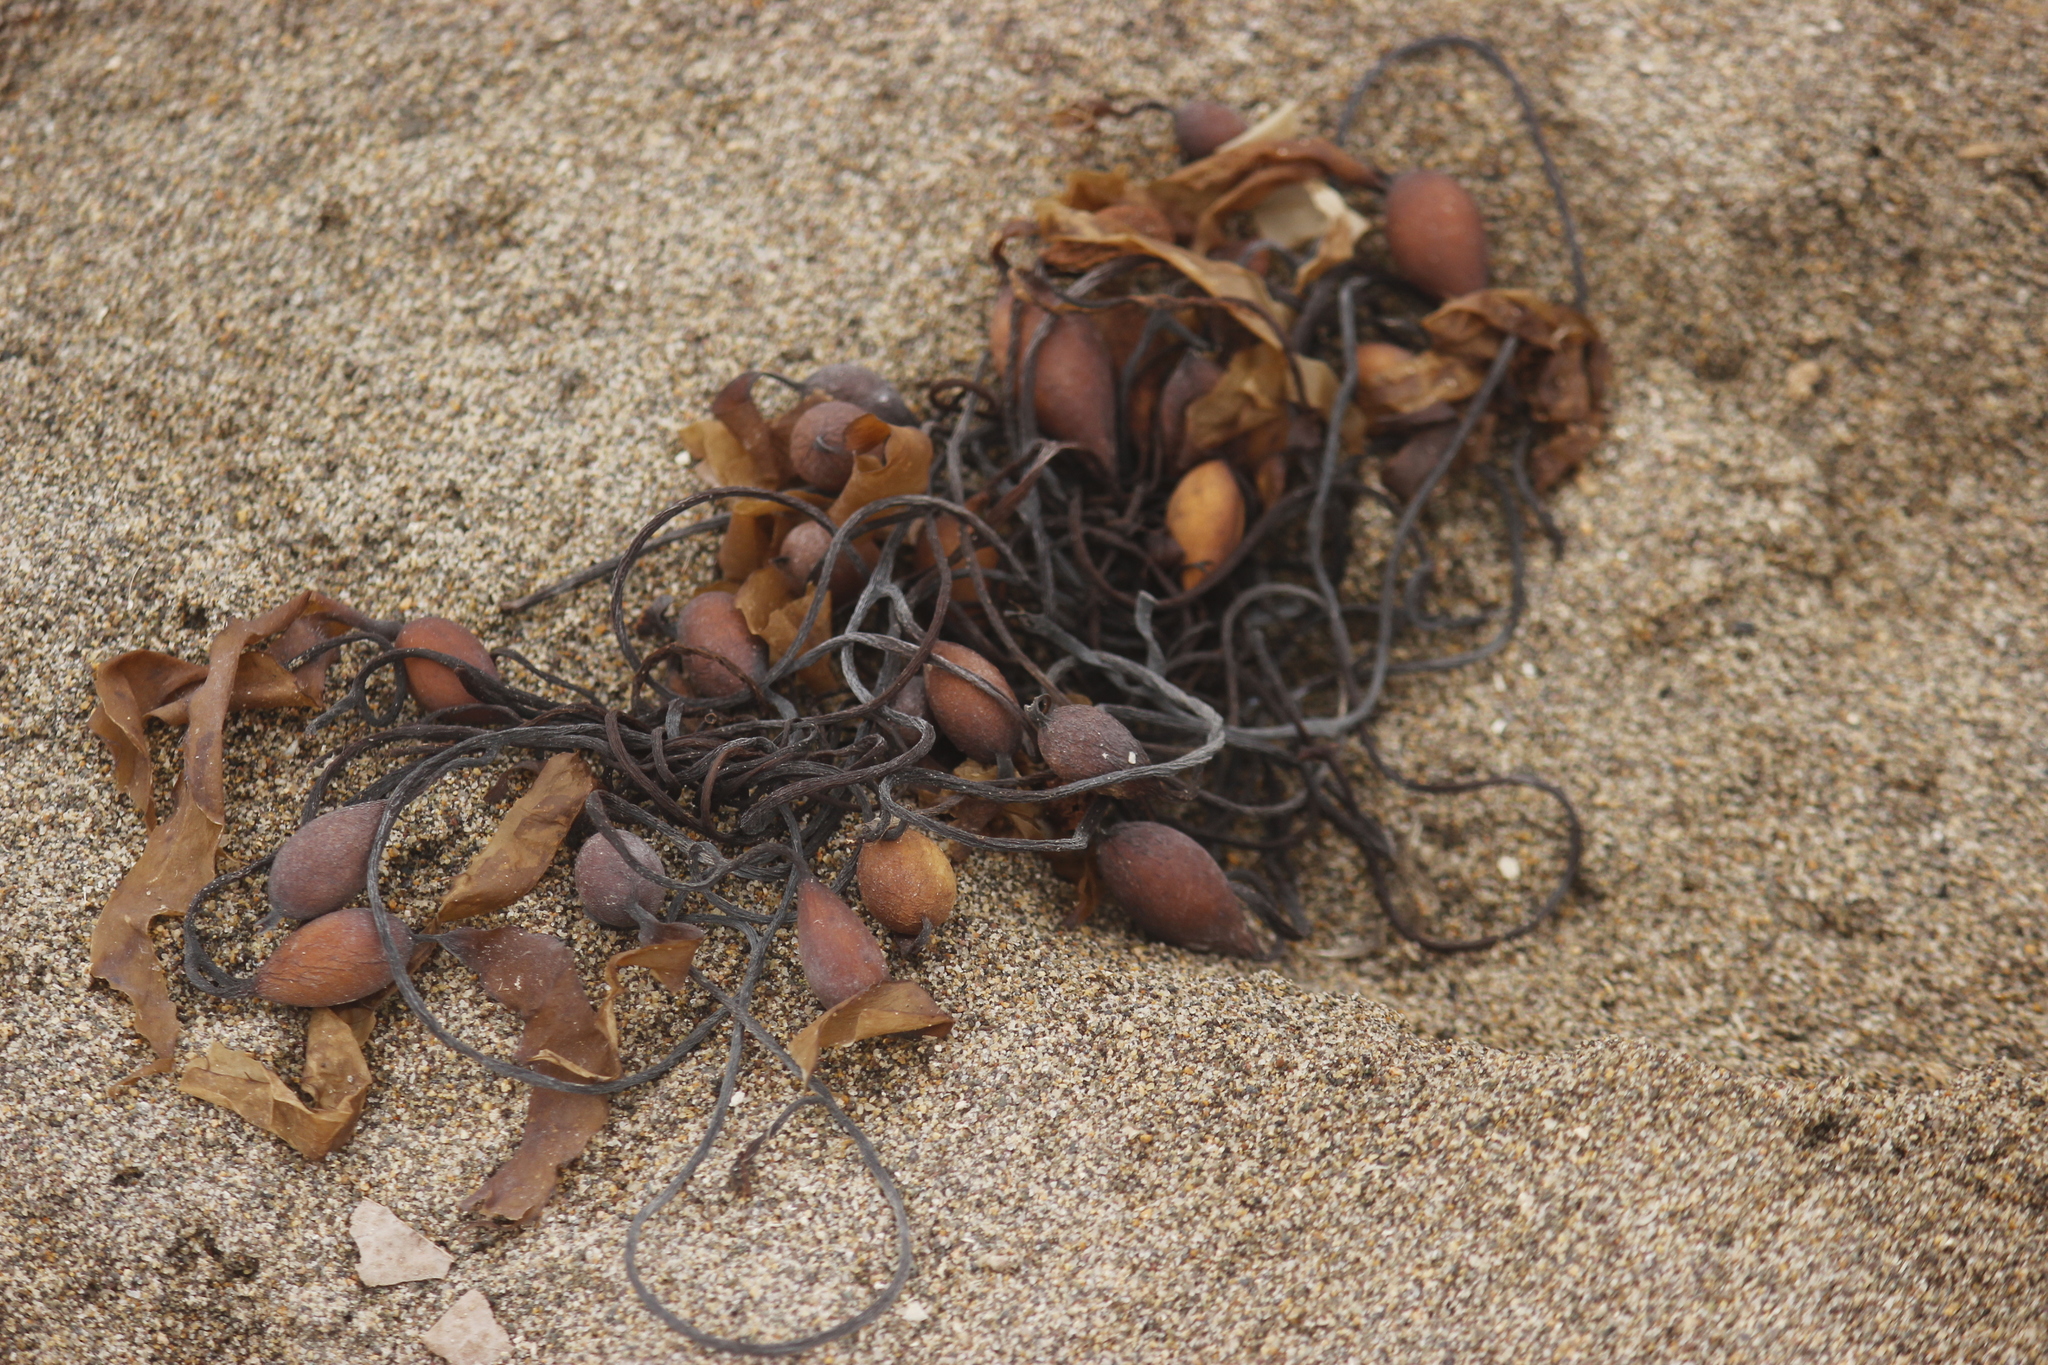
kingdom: Chromista
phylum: Ochrophyta
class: Phaeophyceae
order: Laminariales
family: Laminariaceae
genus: Macrocystis
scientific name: Macrocystis pyrifera
